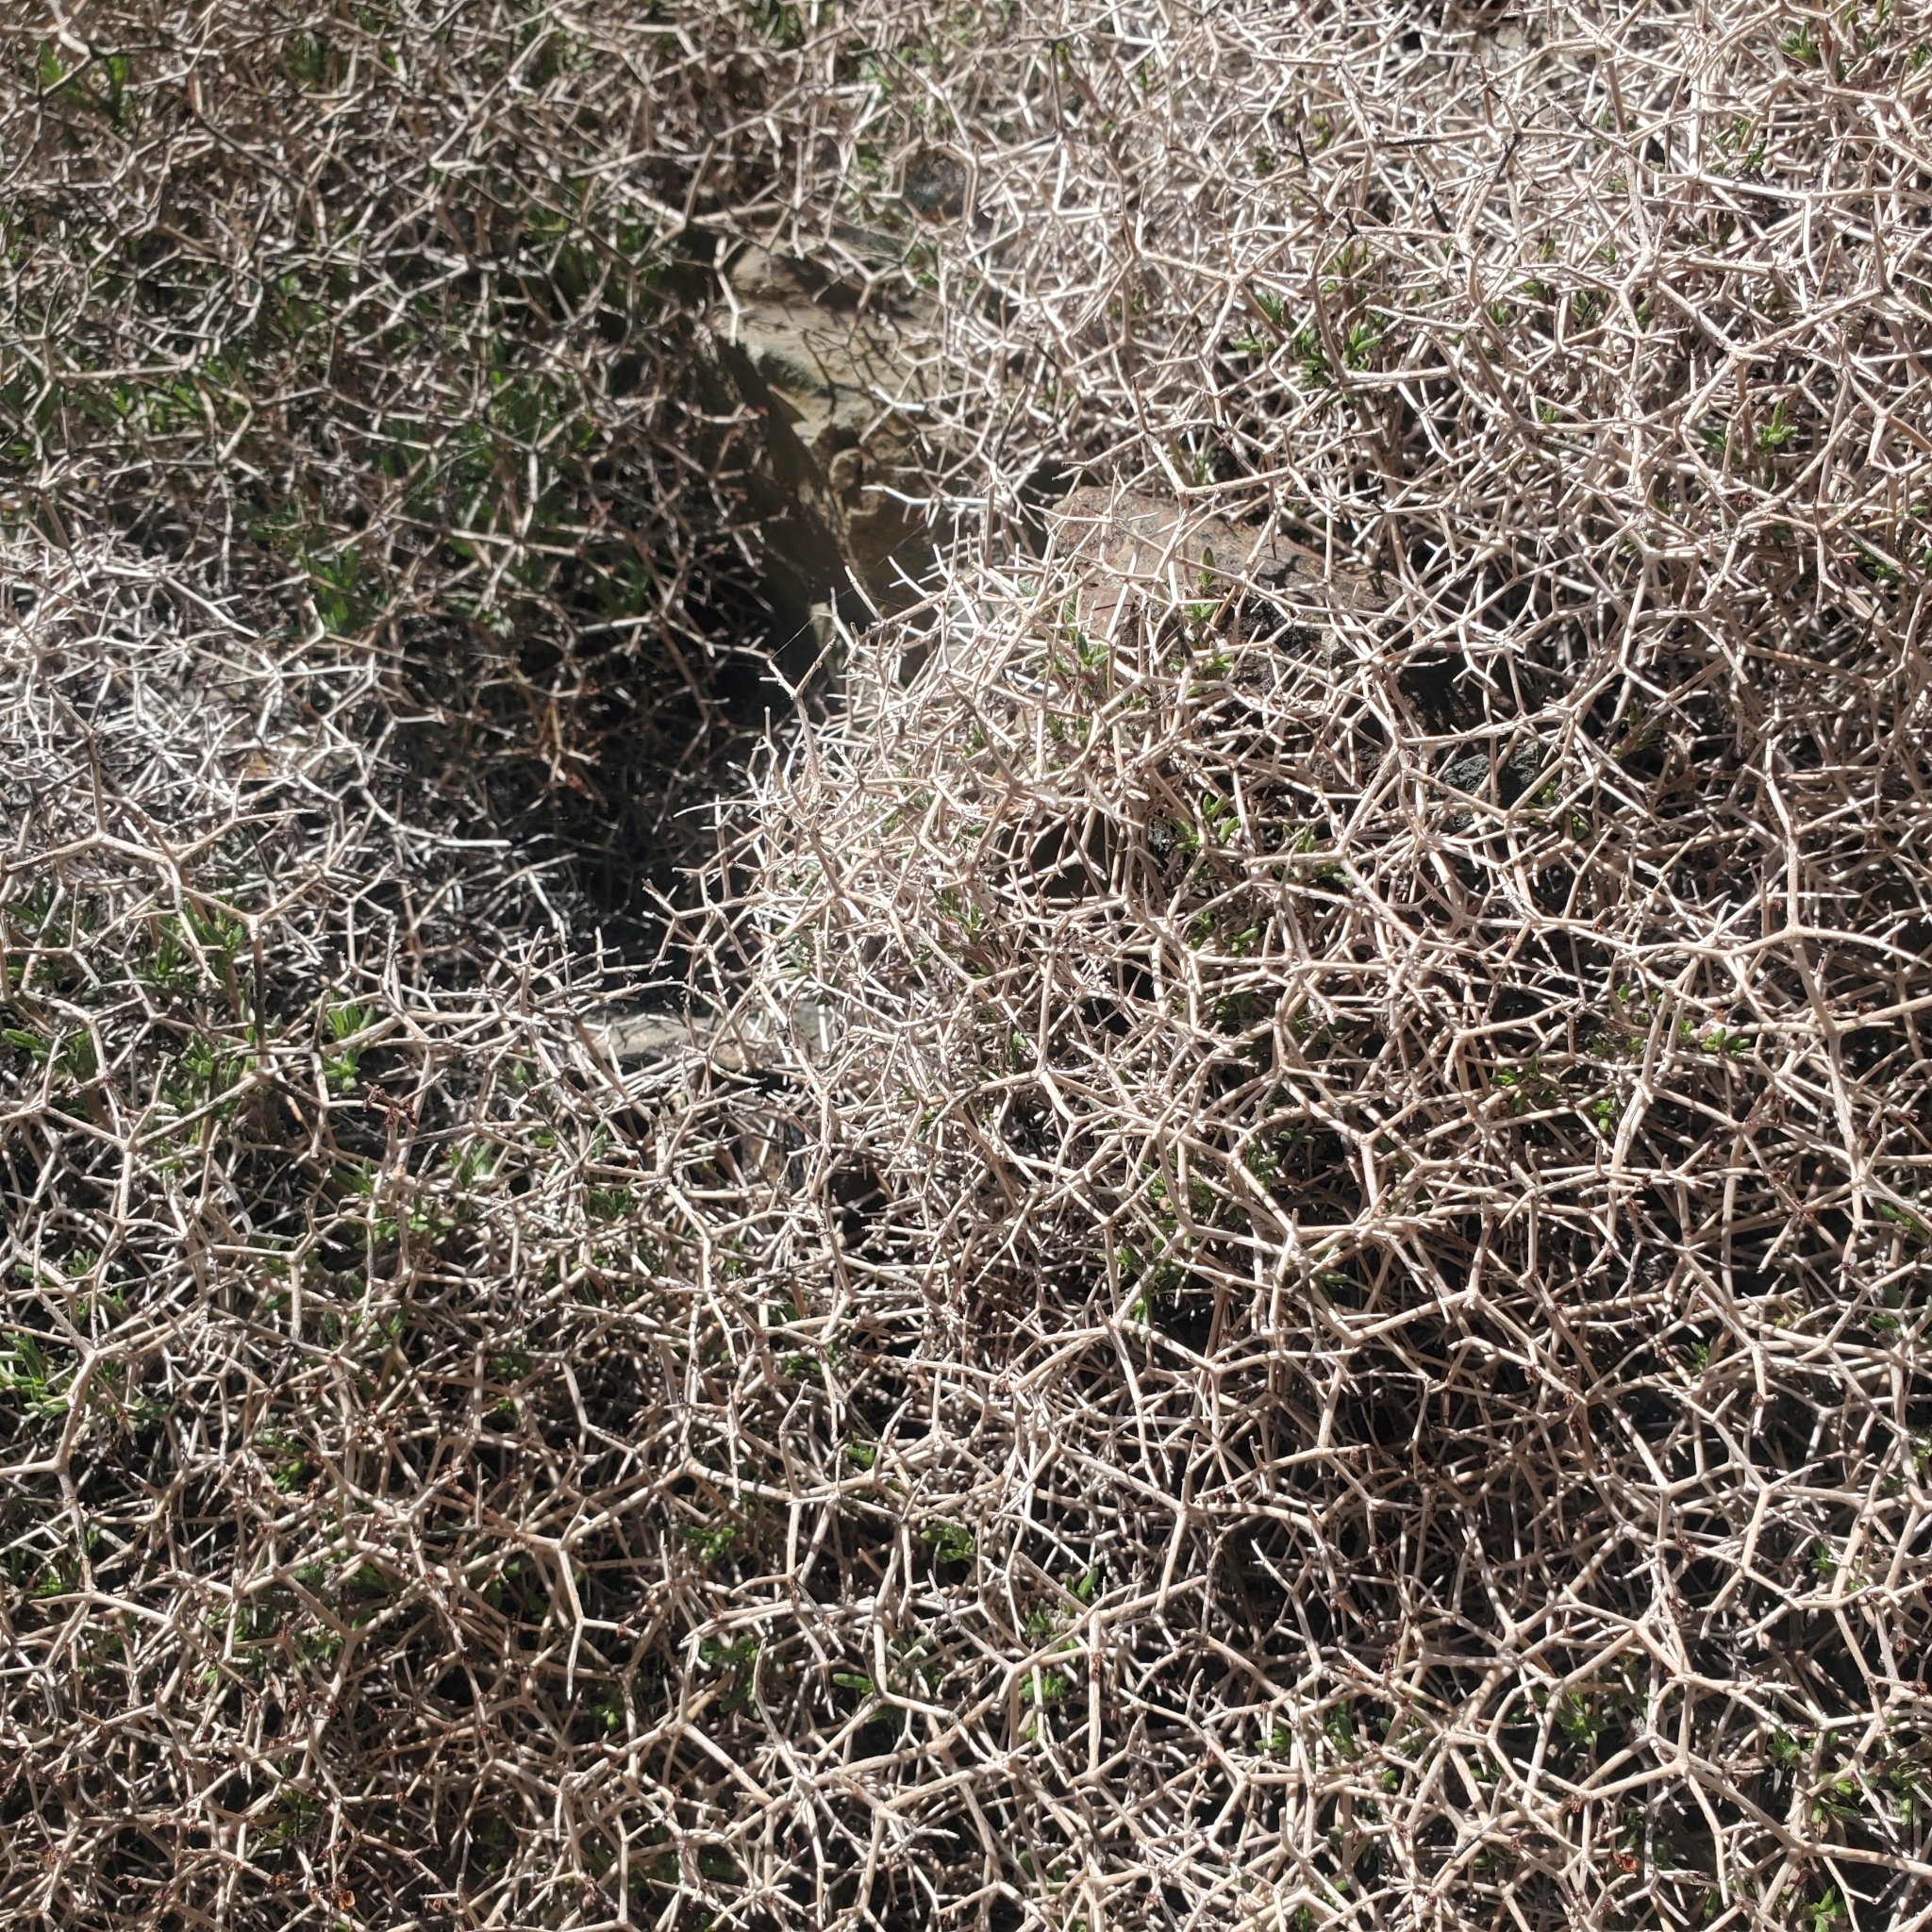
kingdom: Plantae
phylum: Tracheophyta
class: Magnoliopsida
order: Caryophyllales
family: Polygonaceae
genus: Eriogonum
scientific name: Eriogonum heermannii
